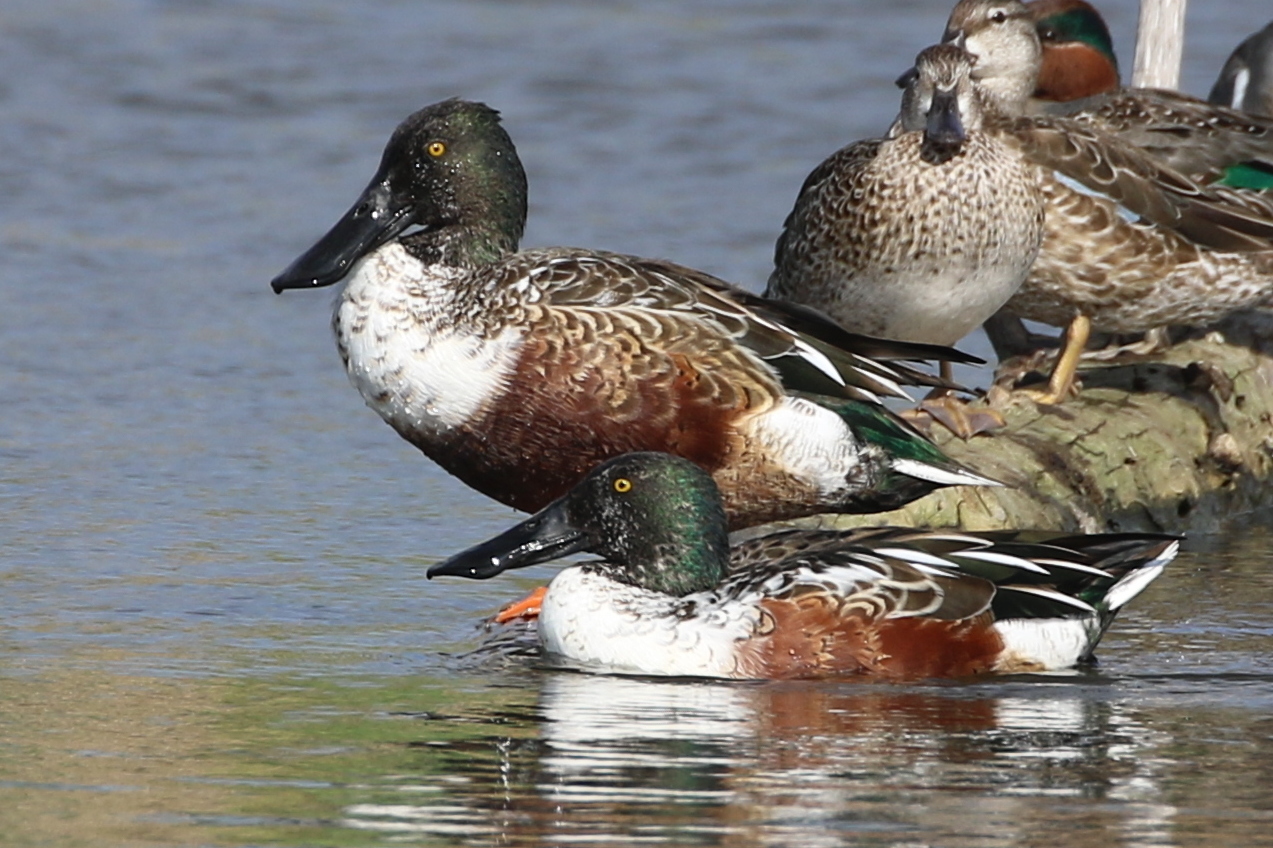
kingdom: Animalia
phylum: Chordata
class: Aves
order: Anseriformes
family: Anatidae
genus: Spatula
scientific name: Spatula clypeata
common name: Northern shoveler
